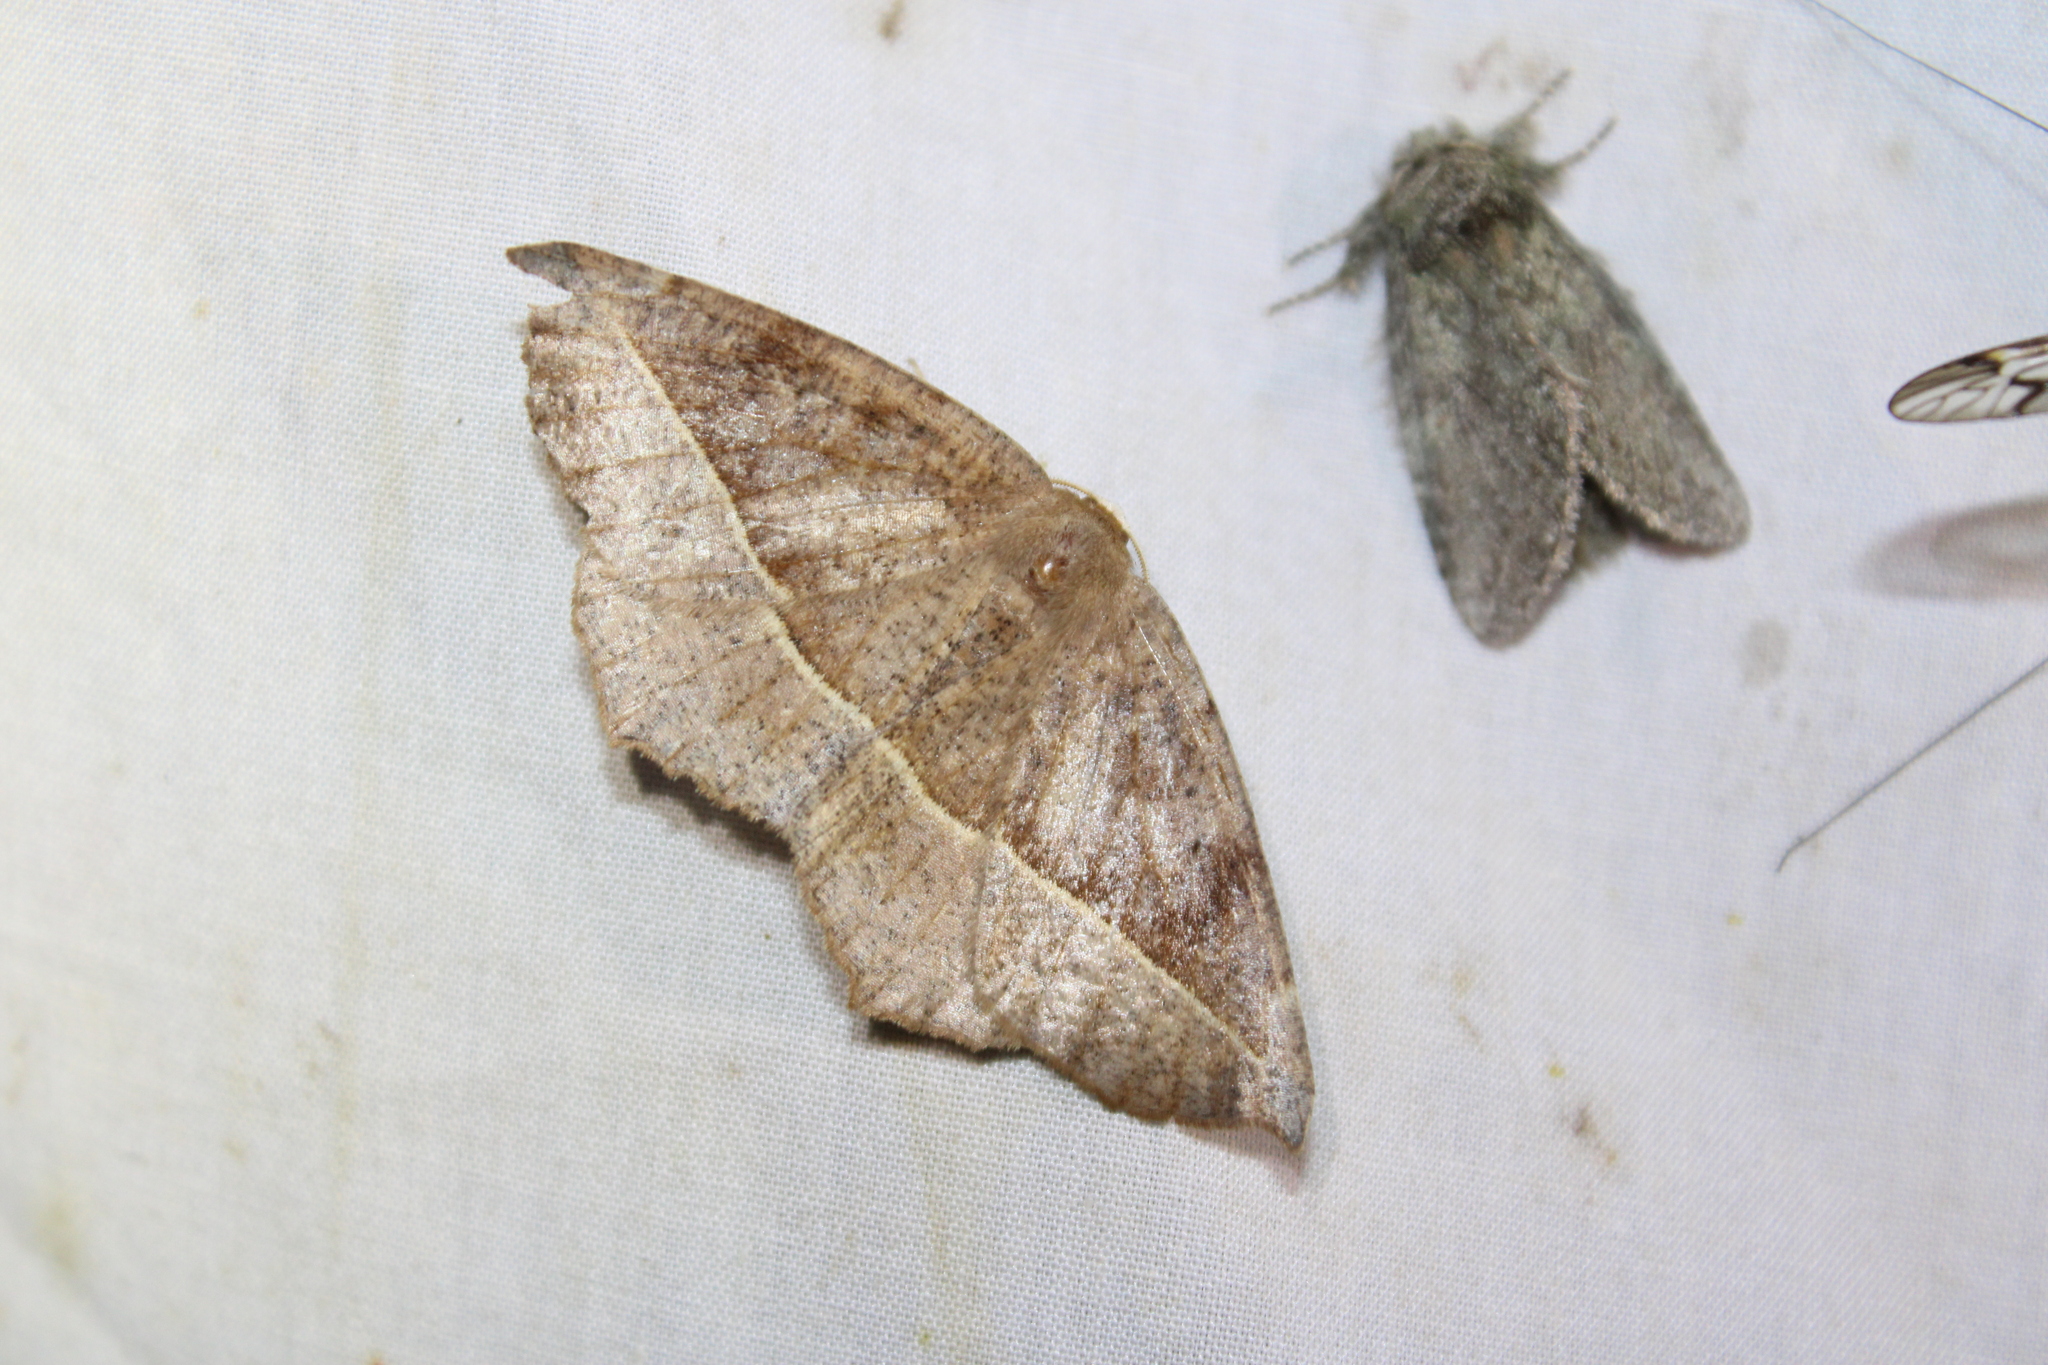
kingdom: Animalia
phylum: Arthropoda
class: Insecta
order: Lepidoptera
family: Geometridae
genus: Eutrapela
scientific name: Eutrapela clemataria
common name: Curved-toothed geometer
